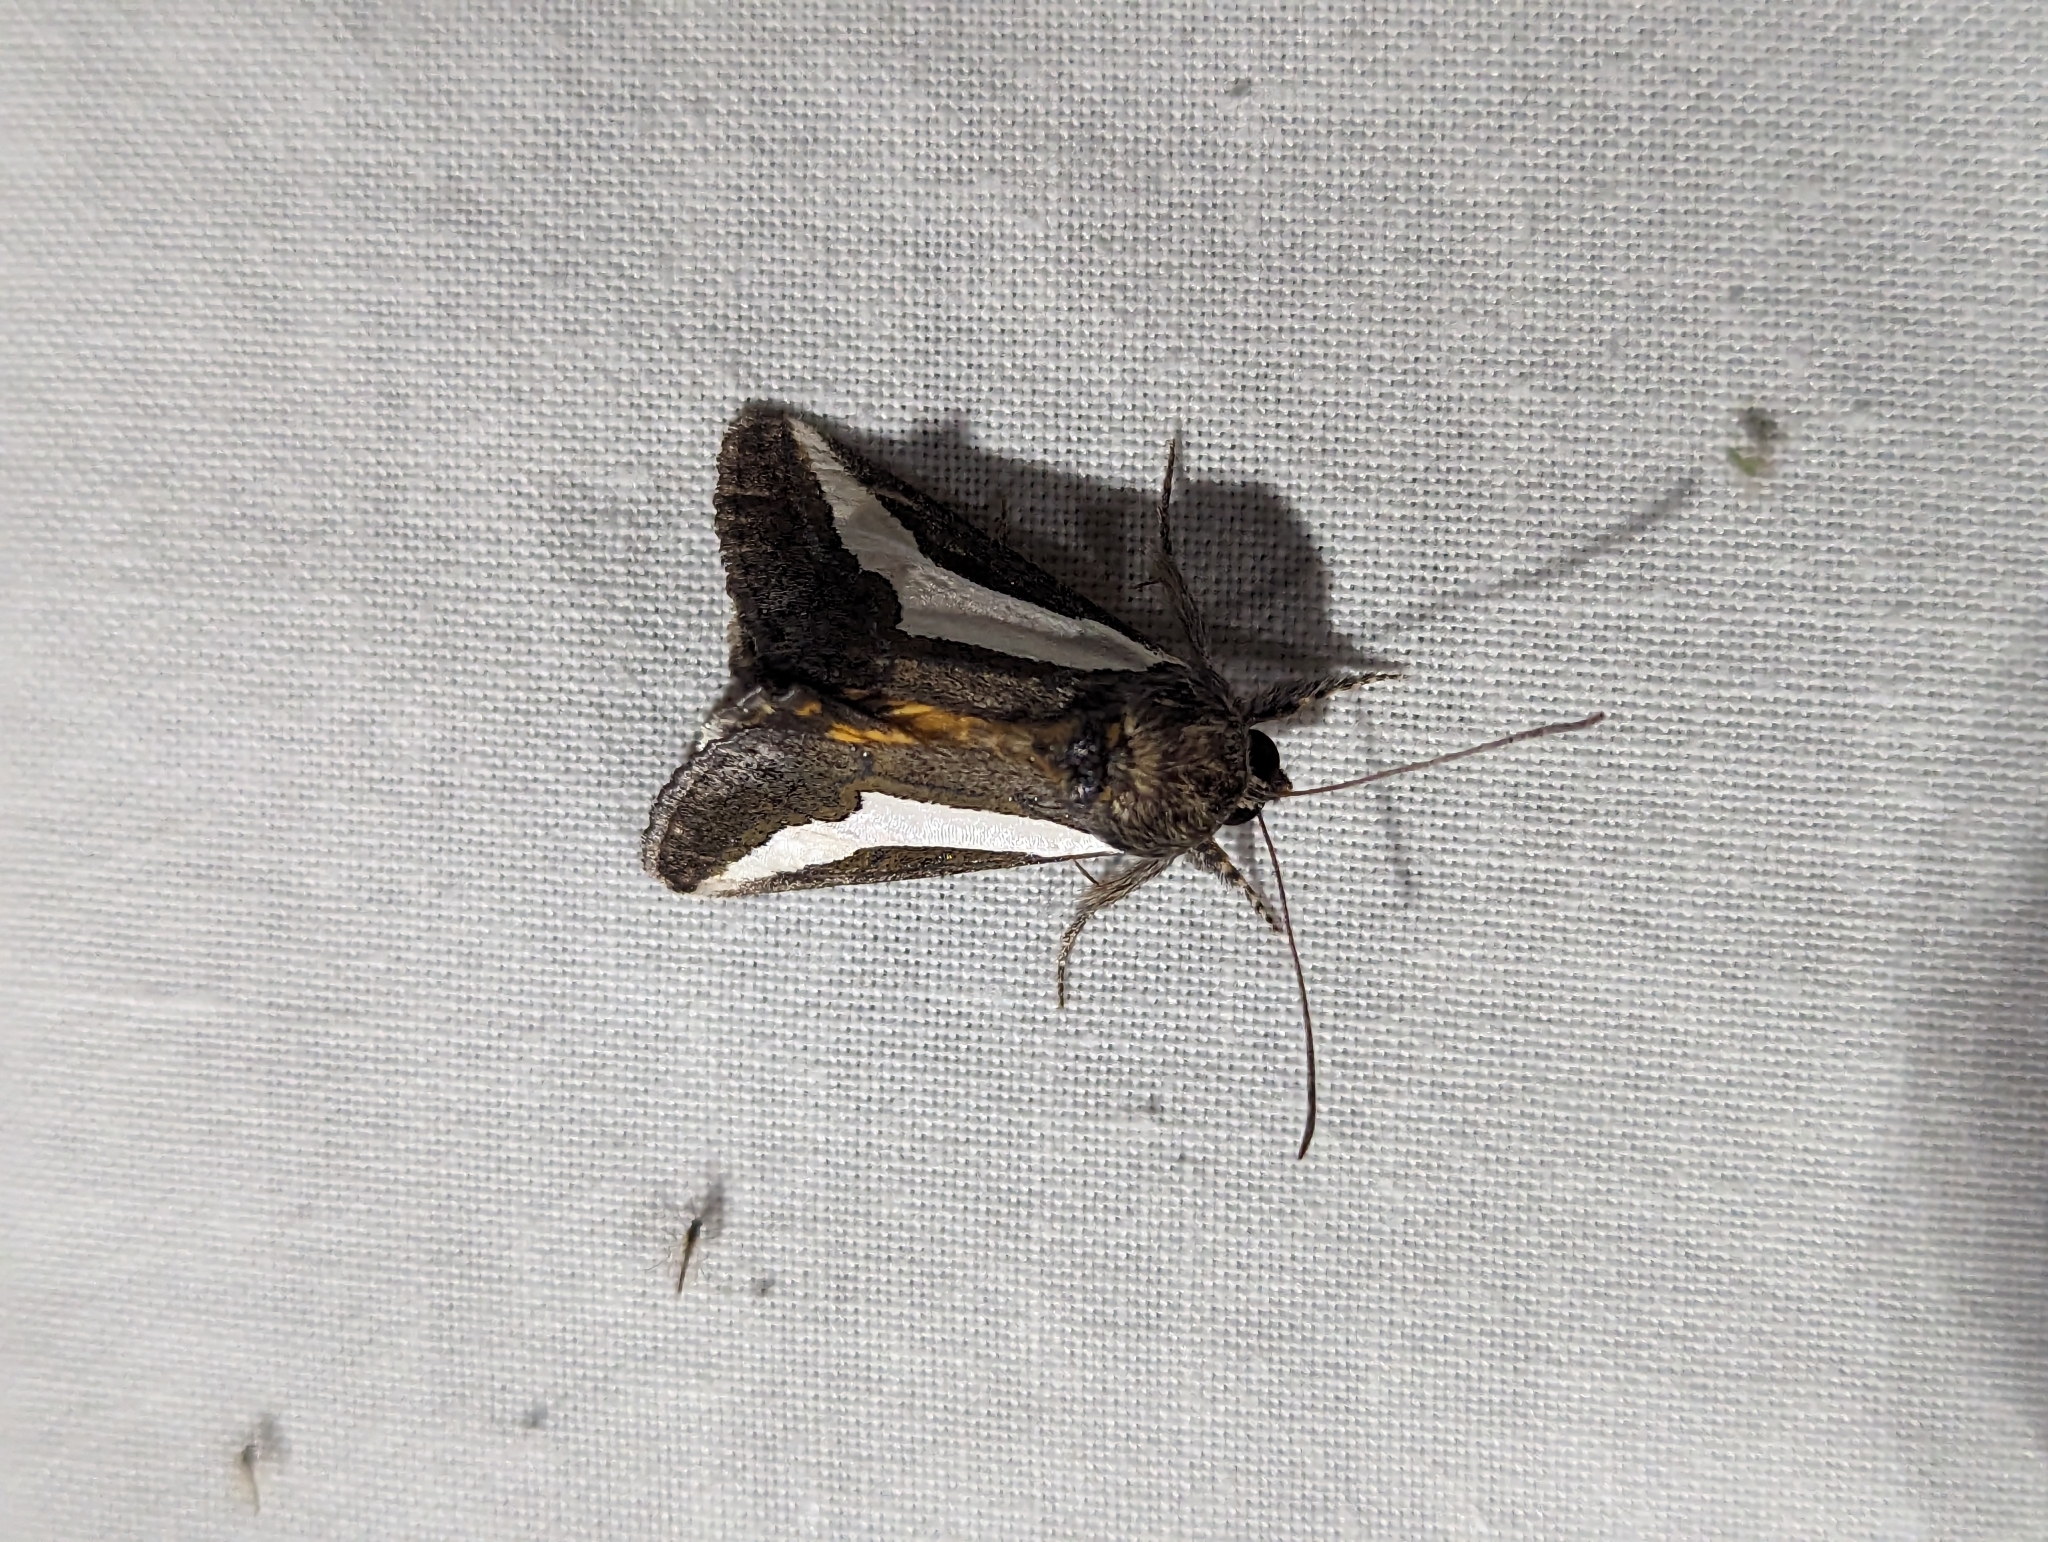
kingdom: Animalia
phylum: Arthropoda
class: Insecta
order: Lepidoptera
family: Noctuidae
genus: Euscirrhopterus
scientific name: Euscirrhopterus cosyra
